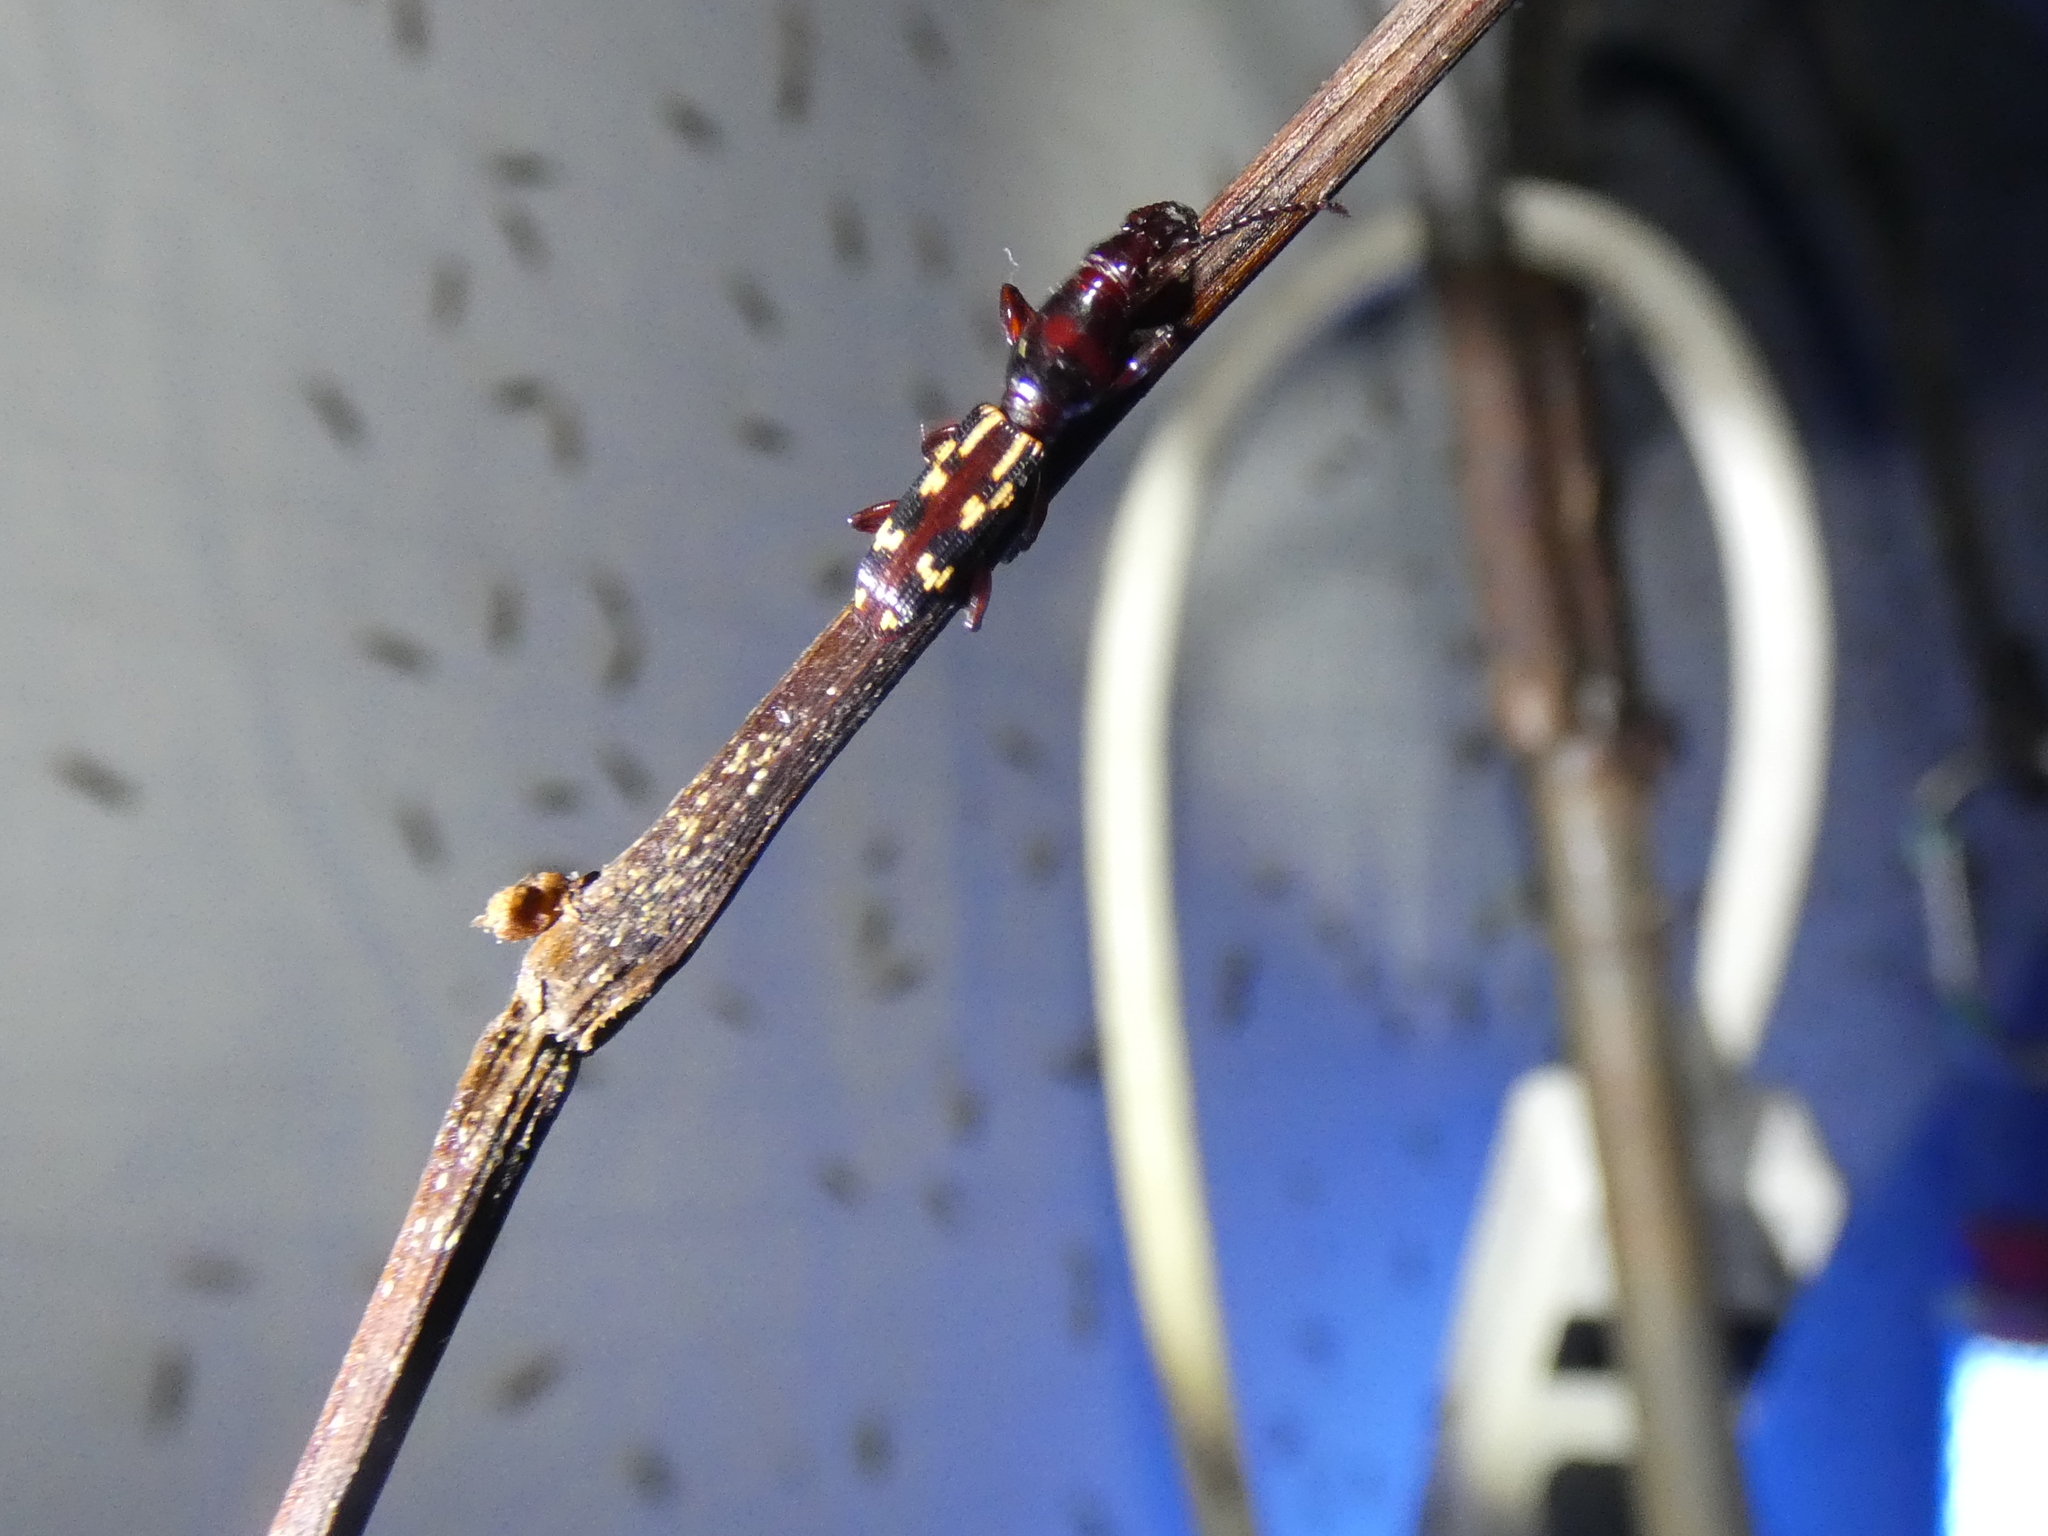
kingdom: Animalia
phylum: Arthropoda
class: Insecta
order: Coleoptera
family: Brentidae
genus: Arrenodes
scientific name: Arrenodes minutus
